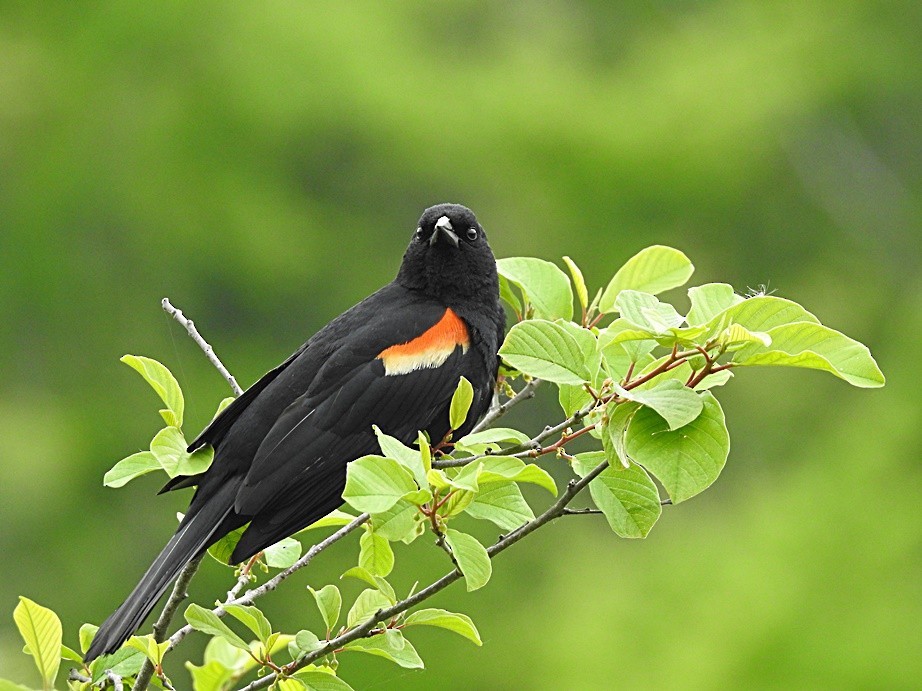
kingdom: Animalia
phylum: Chordata
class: Aves
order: Passeriformes
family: Icteridae
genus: Agelaius
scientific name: Agelaius phoeniceus
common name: Red-winged blackbird
